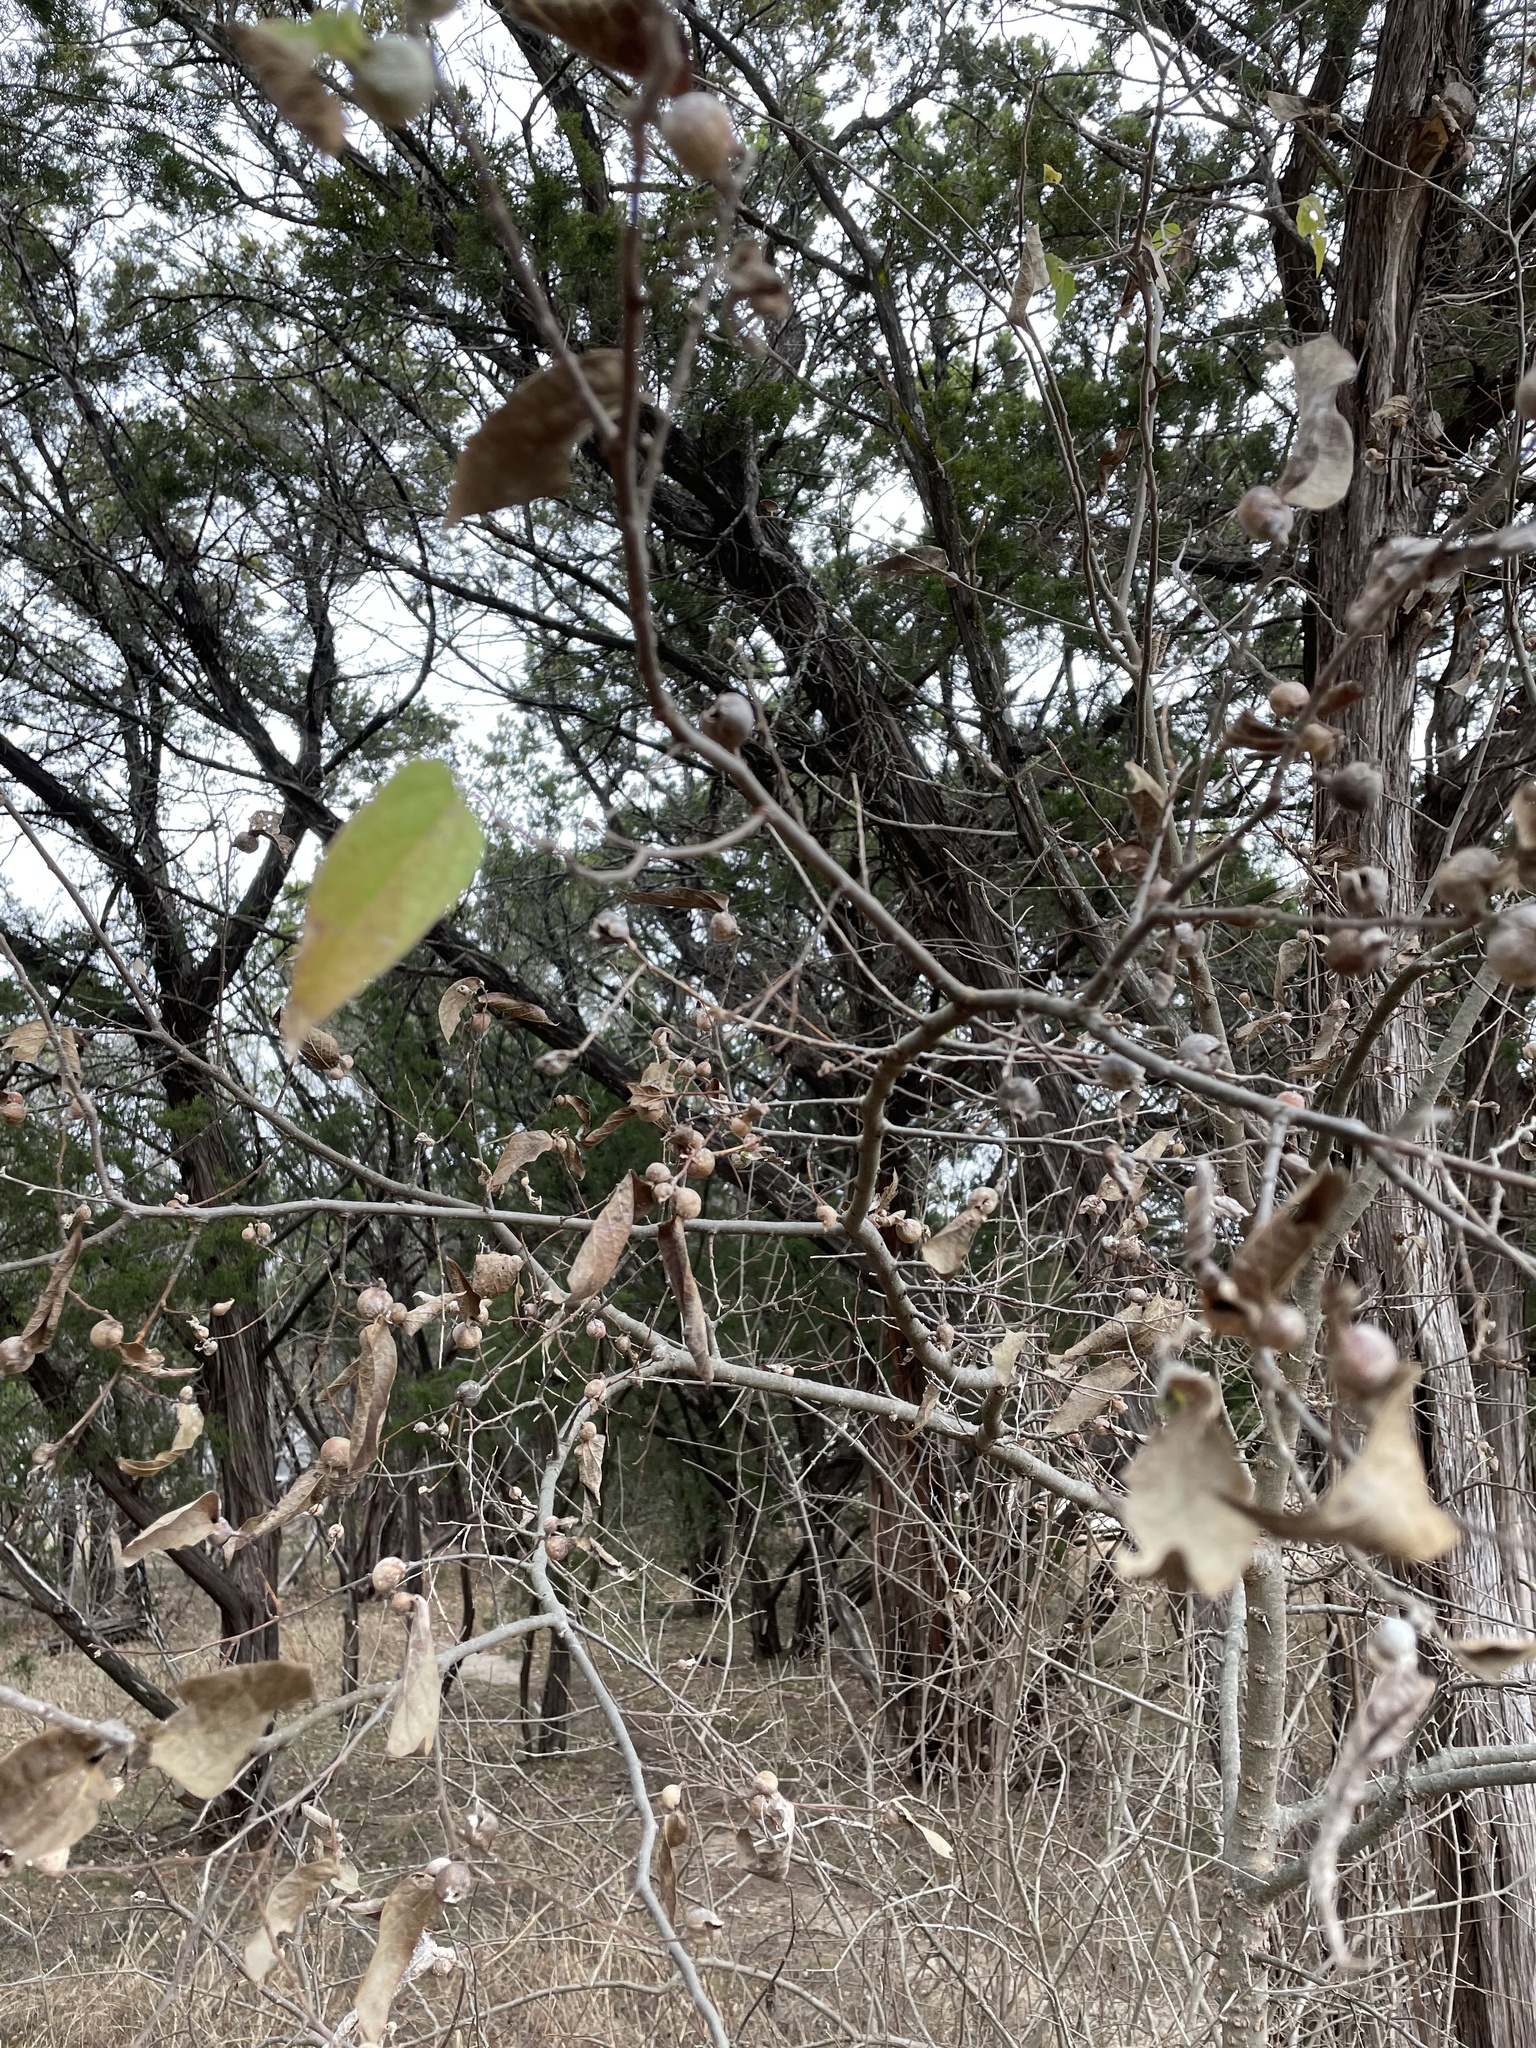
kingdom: Animalia
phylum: Arthropoda
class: Insecta
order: Hemiptera
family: Aphalaridae
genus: Pachypsylla
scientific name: Pachypsylla venusta
